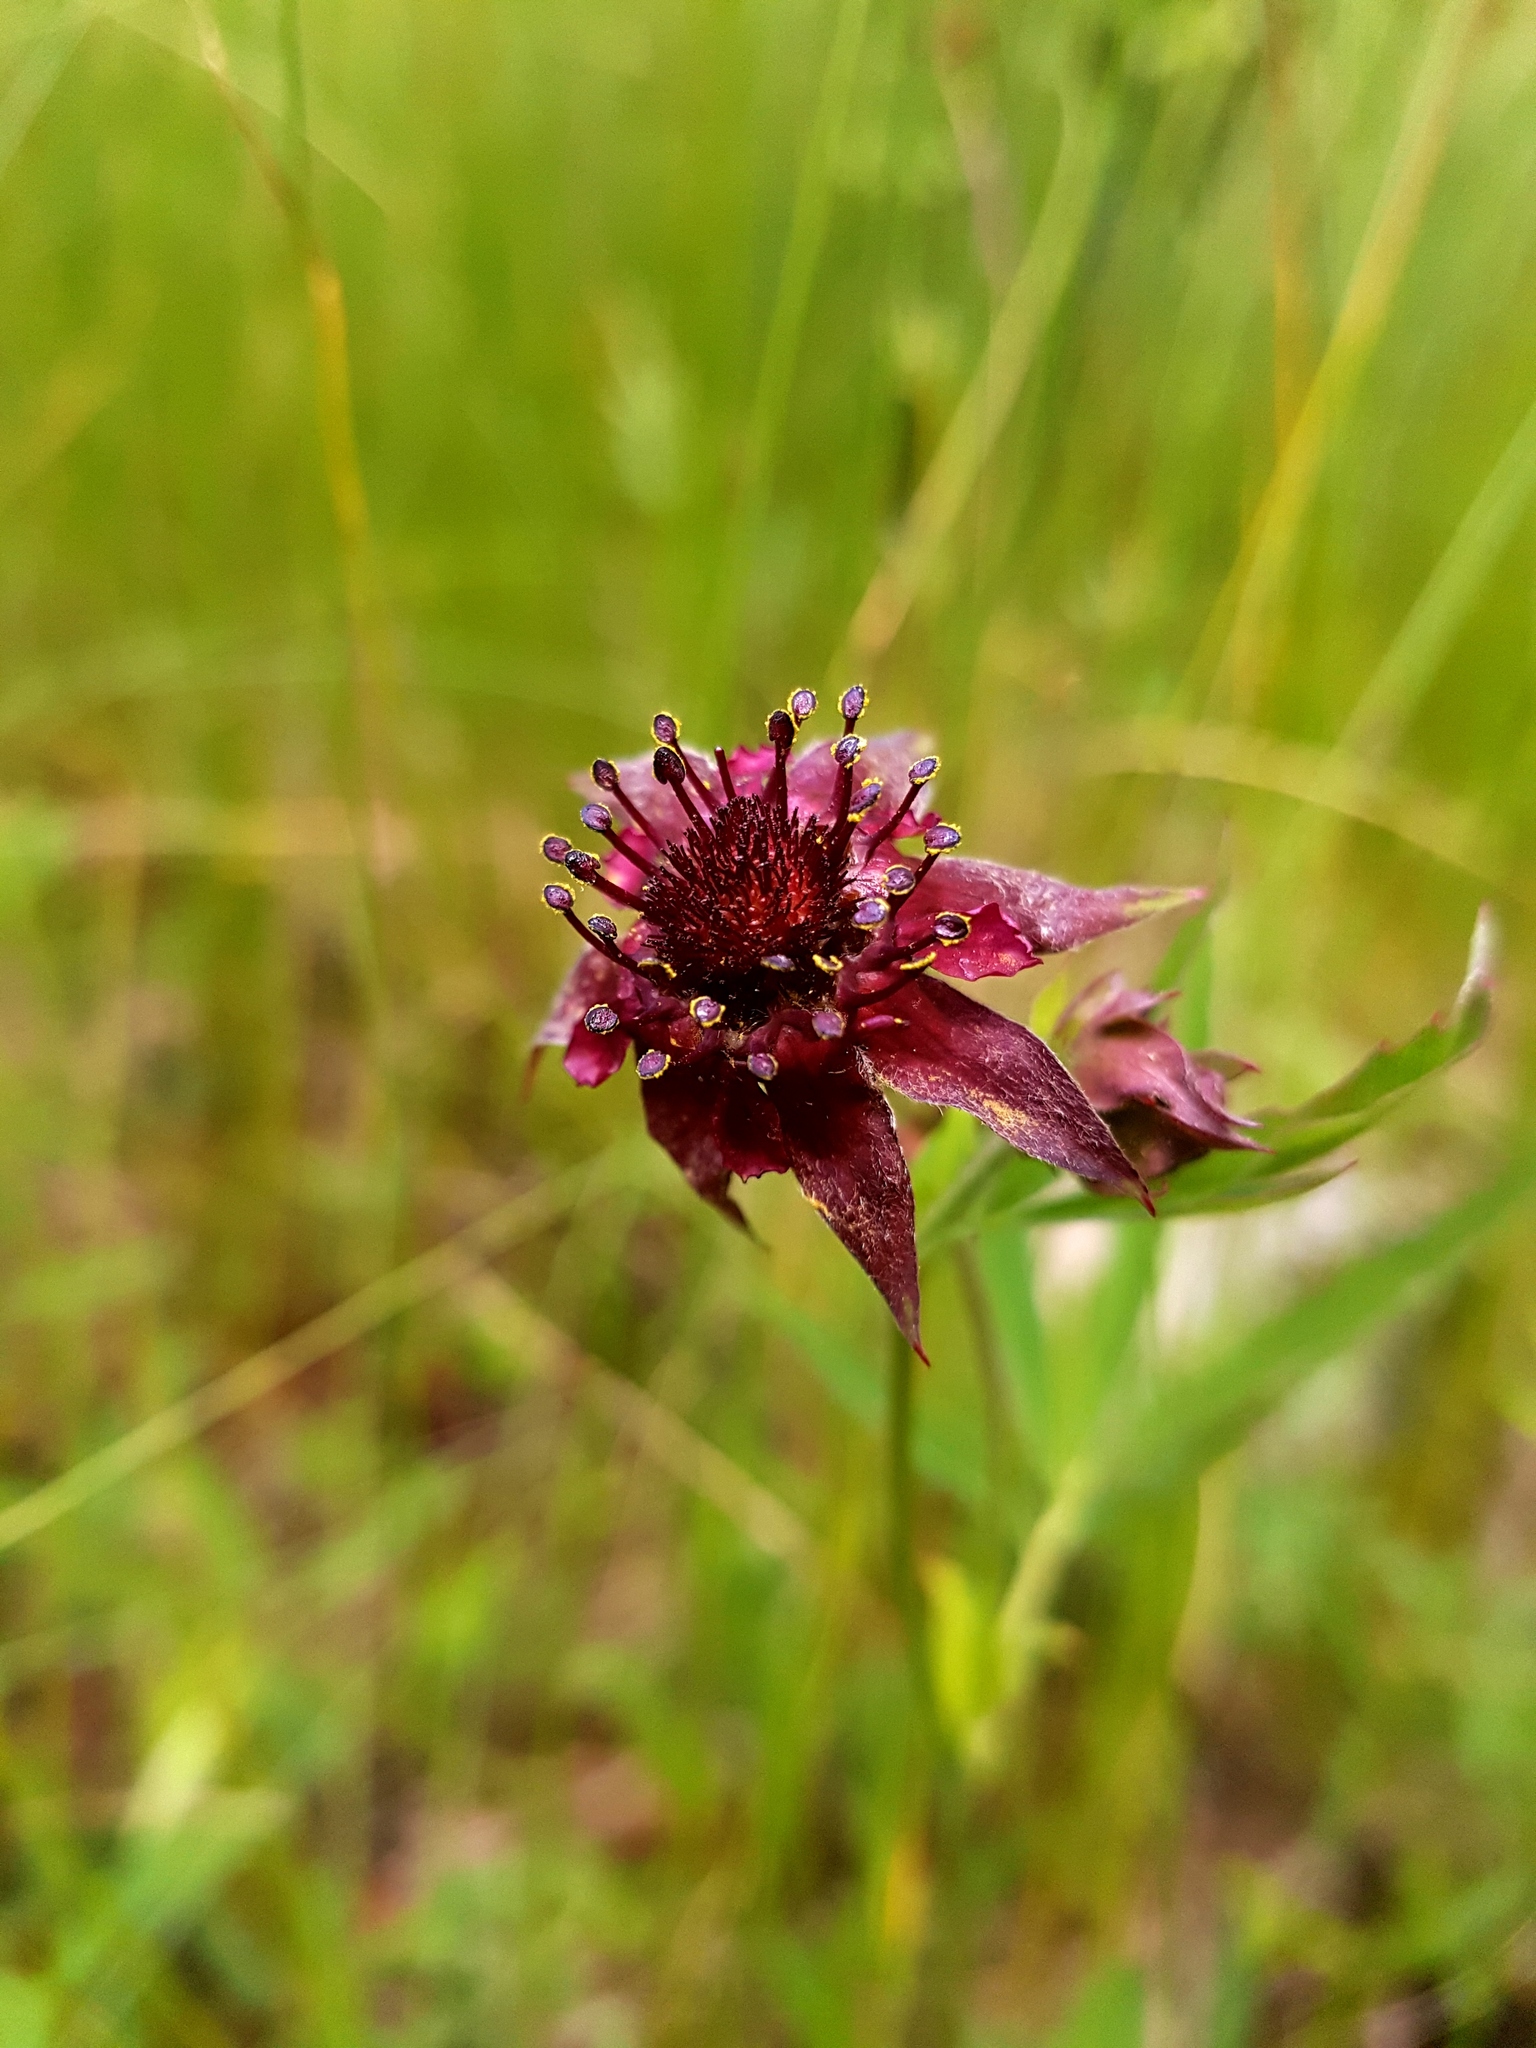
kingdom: Plantae
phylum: Tracheophyta
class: Magnoliopsida
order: Rosales
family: Rosaceae
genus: Comarum
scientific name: Comarum palustre
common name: Marsh cinquefoil
